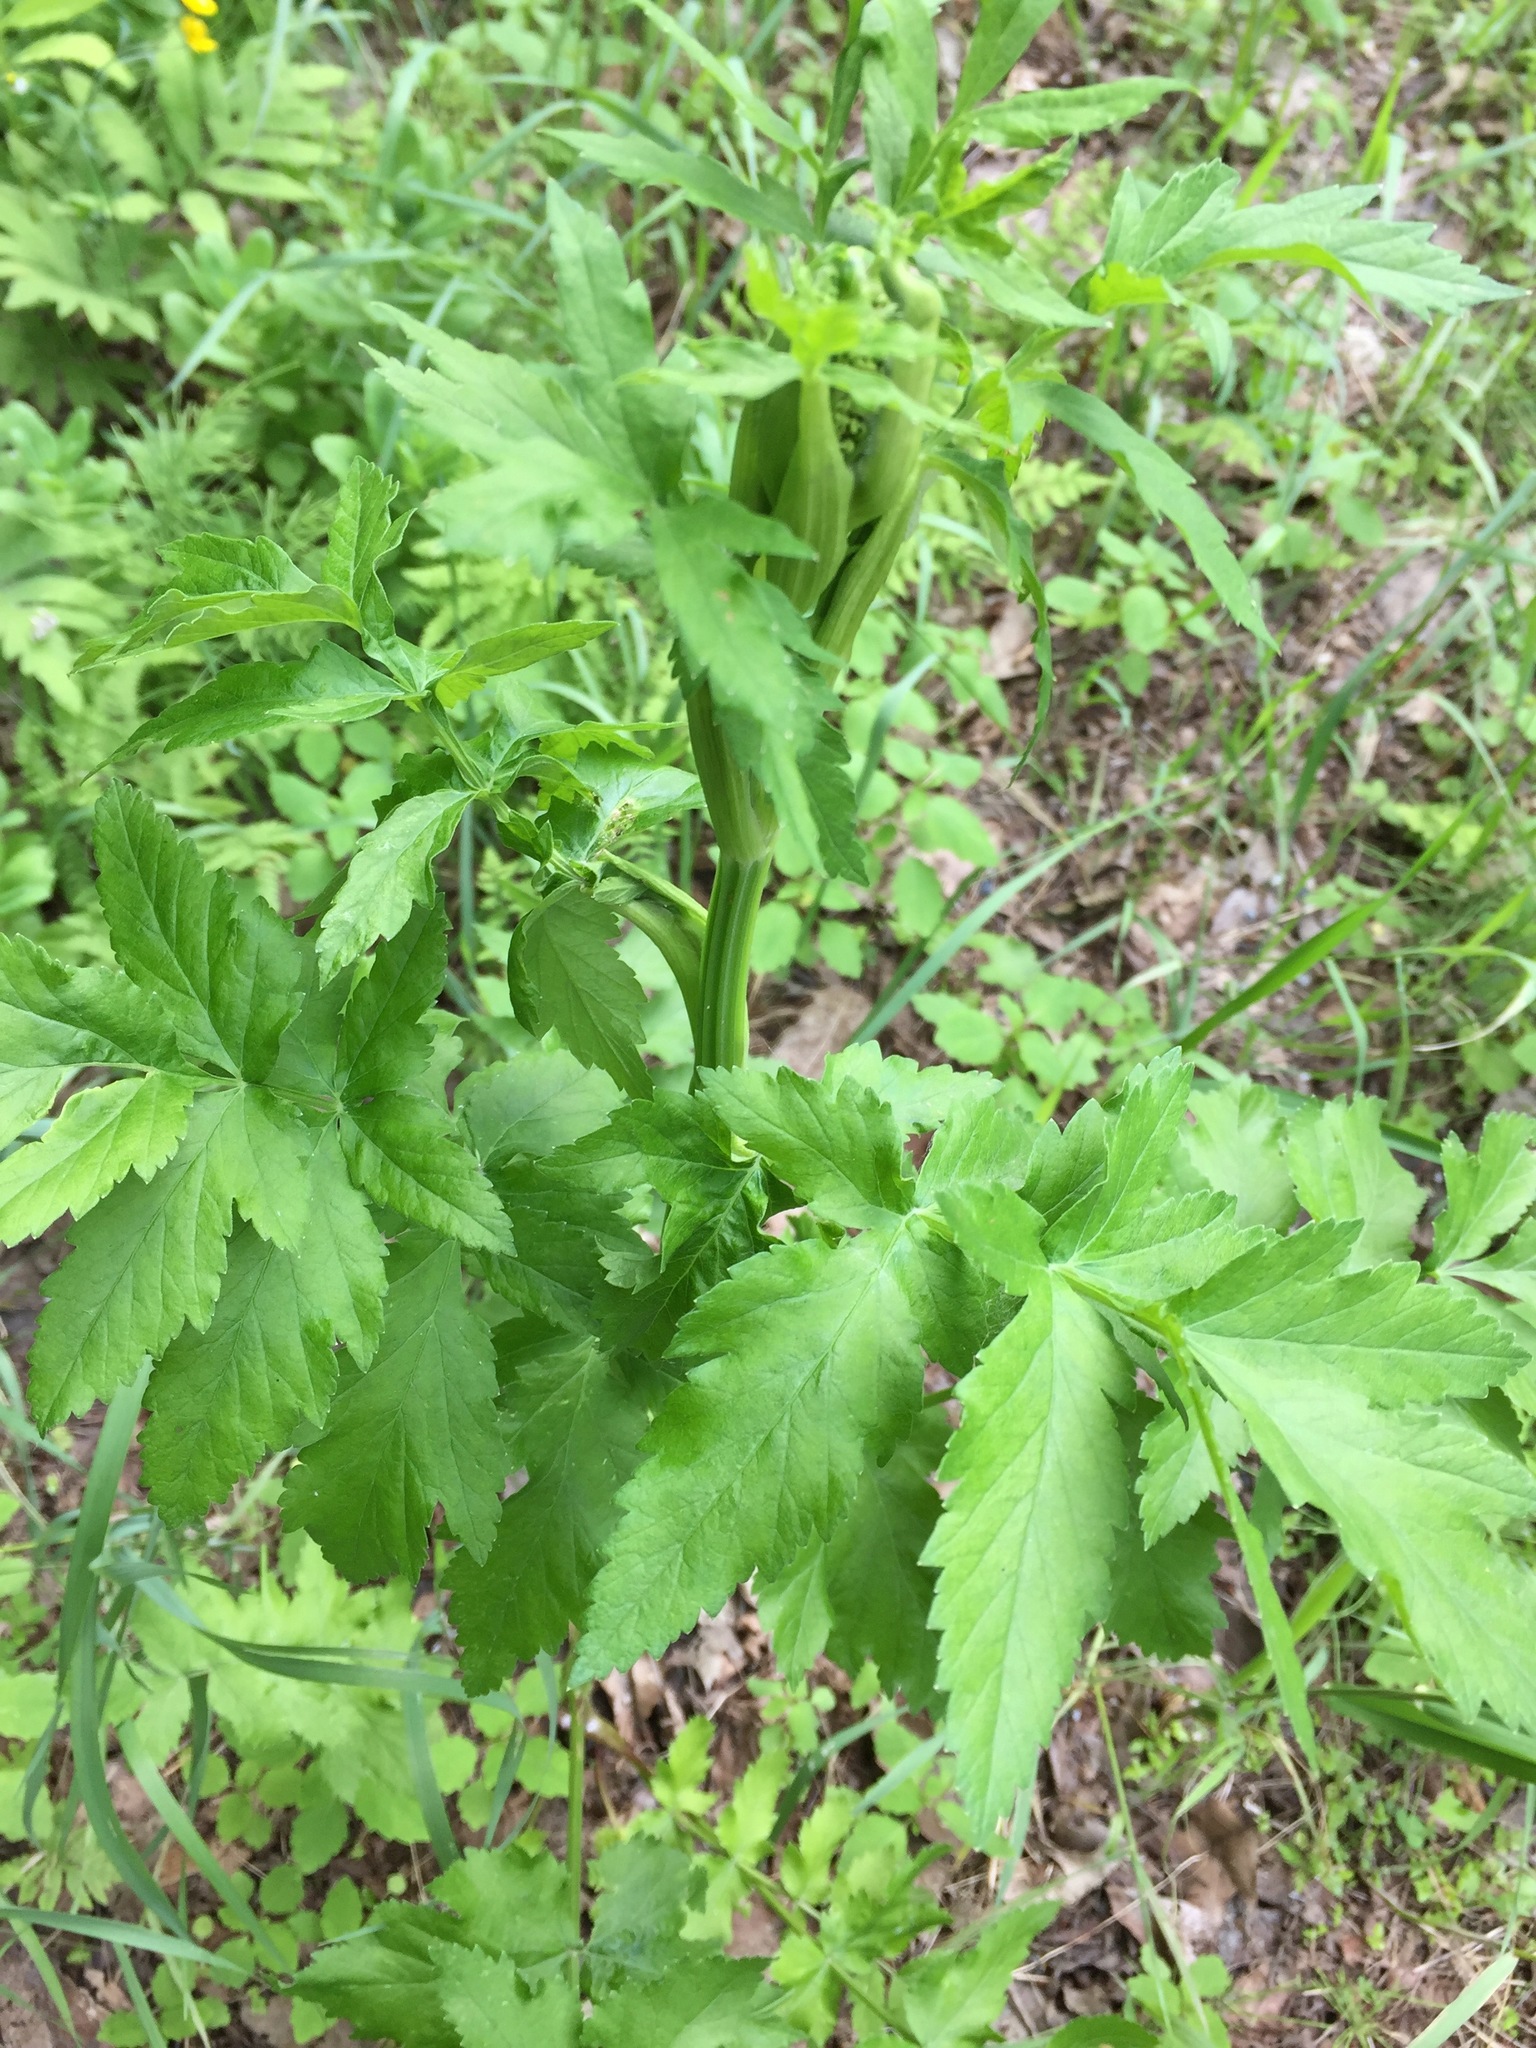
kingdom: Plantae
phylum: Tracheophyta
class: Magnoliopsida
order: Apiales
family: Apiaceae
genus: Pastinaca
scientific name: Pastinaca sativa
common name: Wild parsnip
